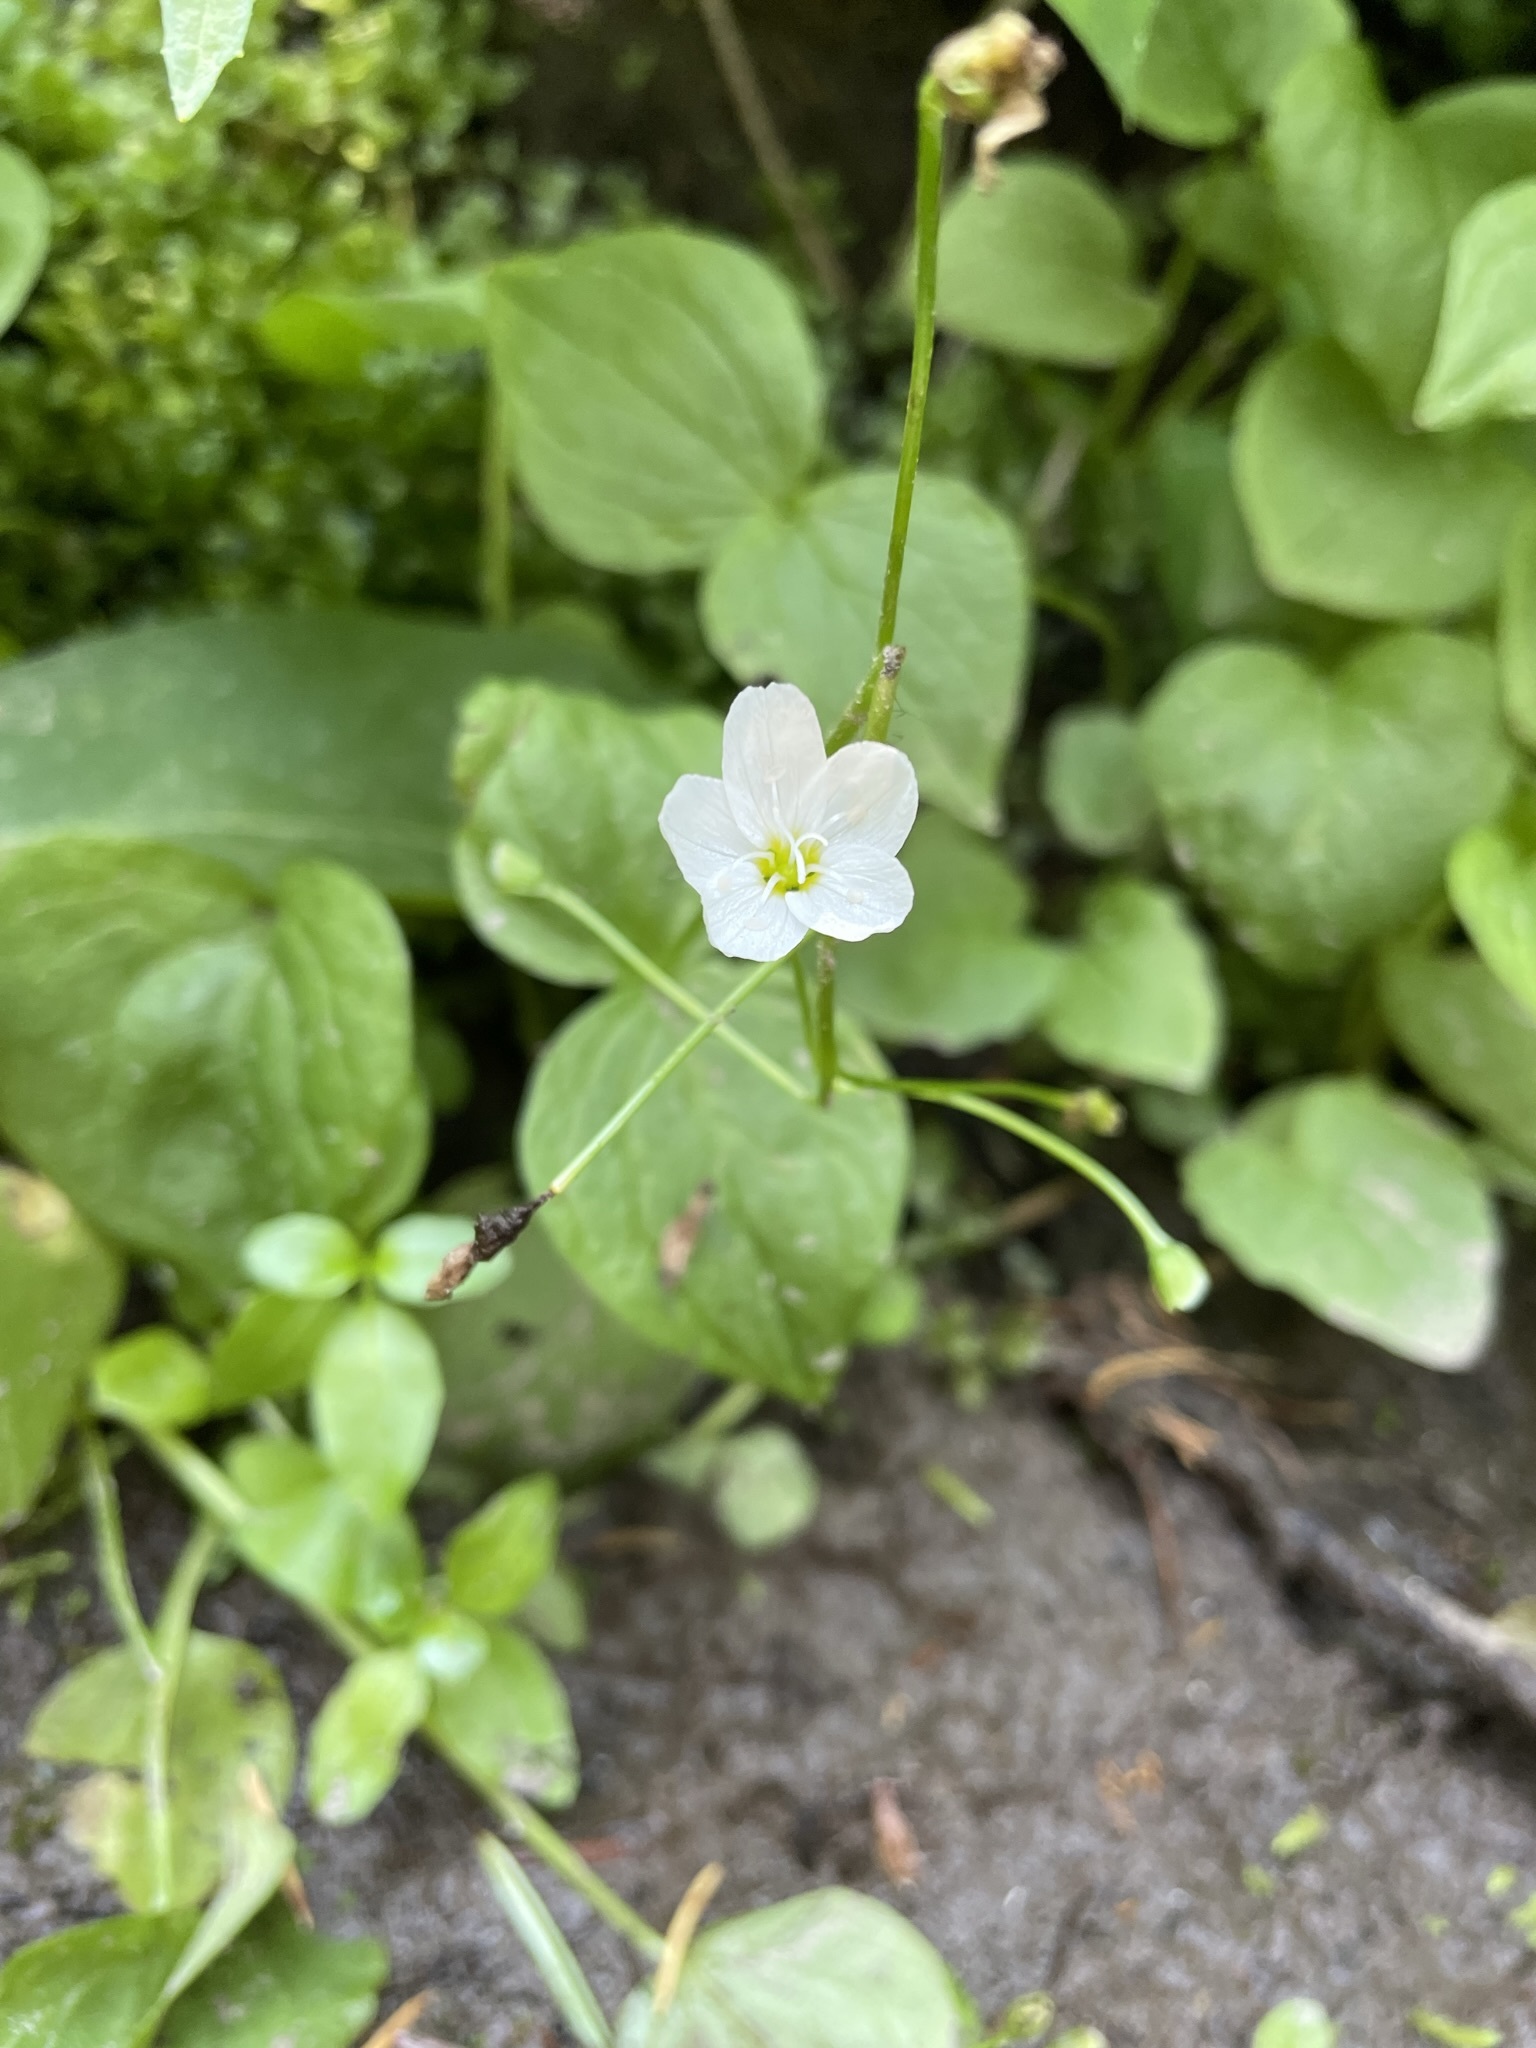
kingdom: Plantae
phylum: Tracheophyta
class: Magnoliopsida
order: Caryophyllales
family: Montiaceae
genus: Claytonia
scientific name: Claytonia cordifolia
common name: Broad-leaved spring beauty
